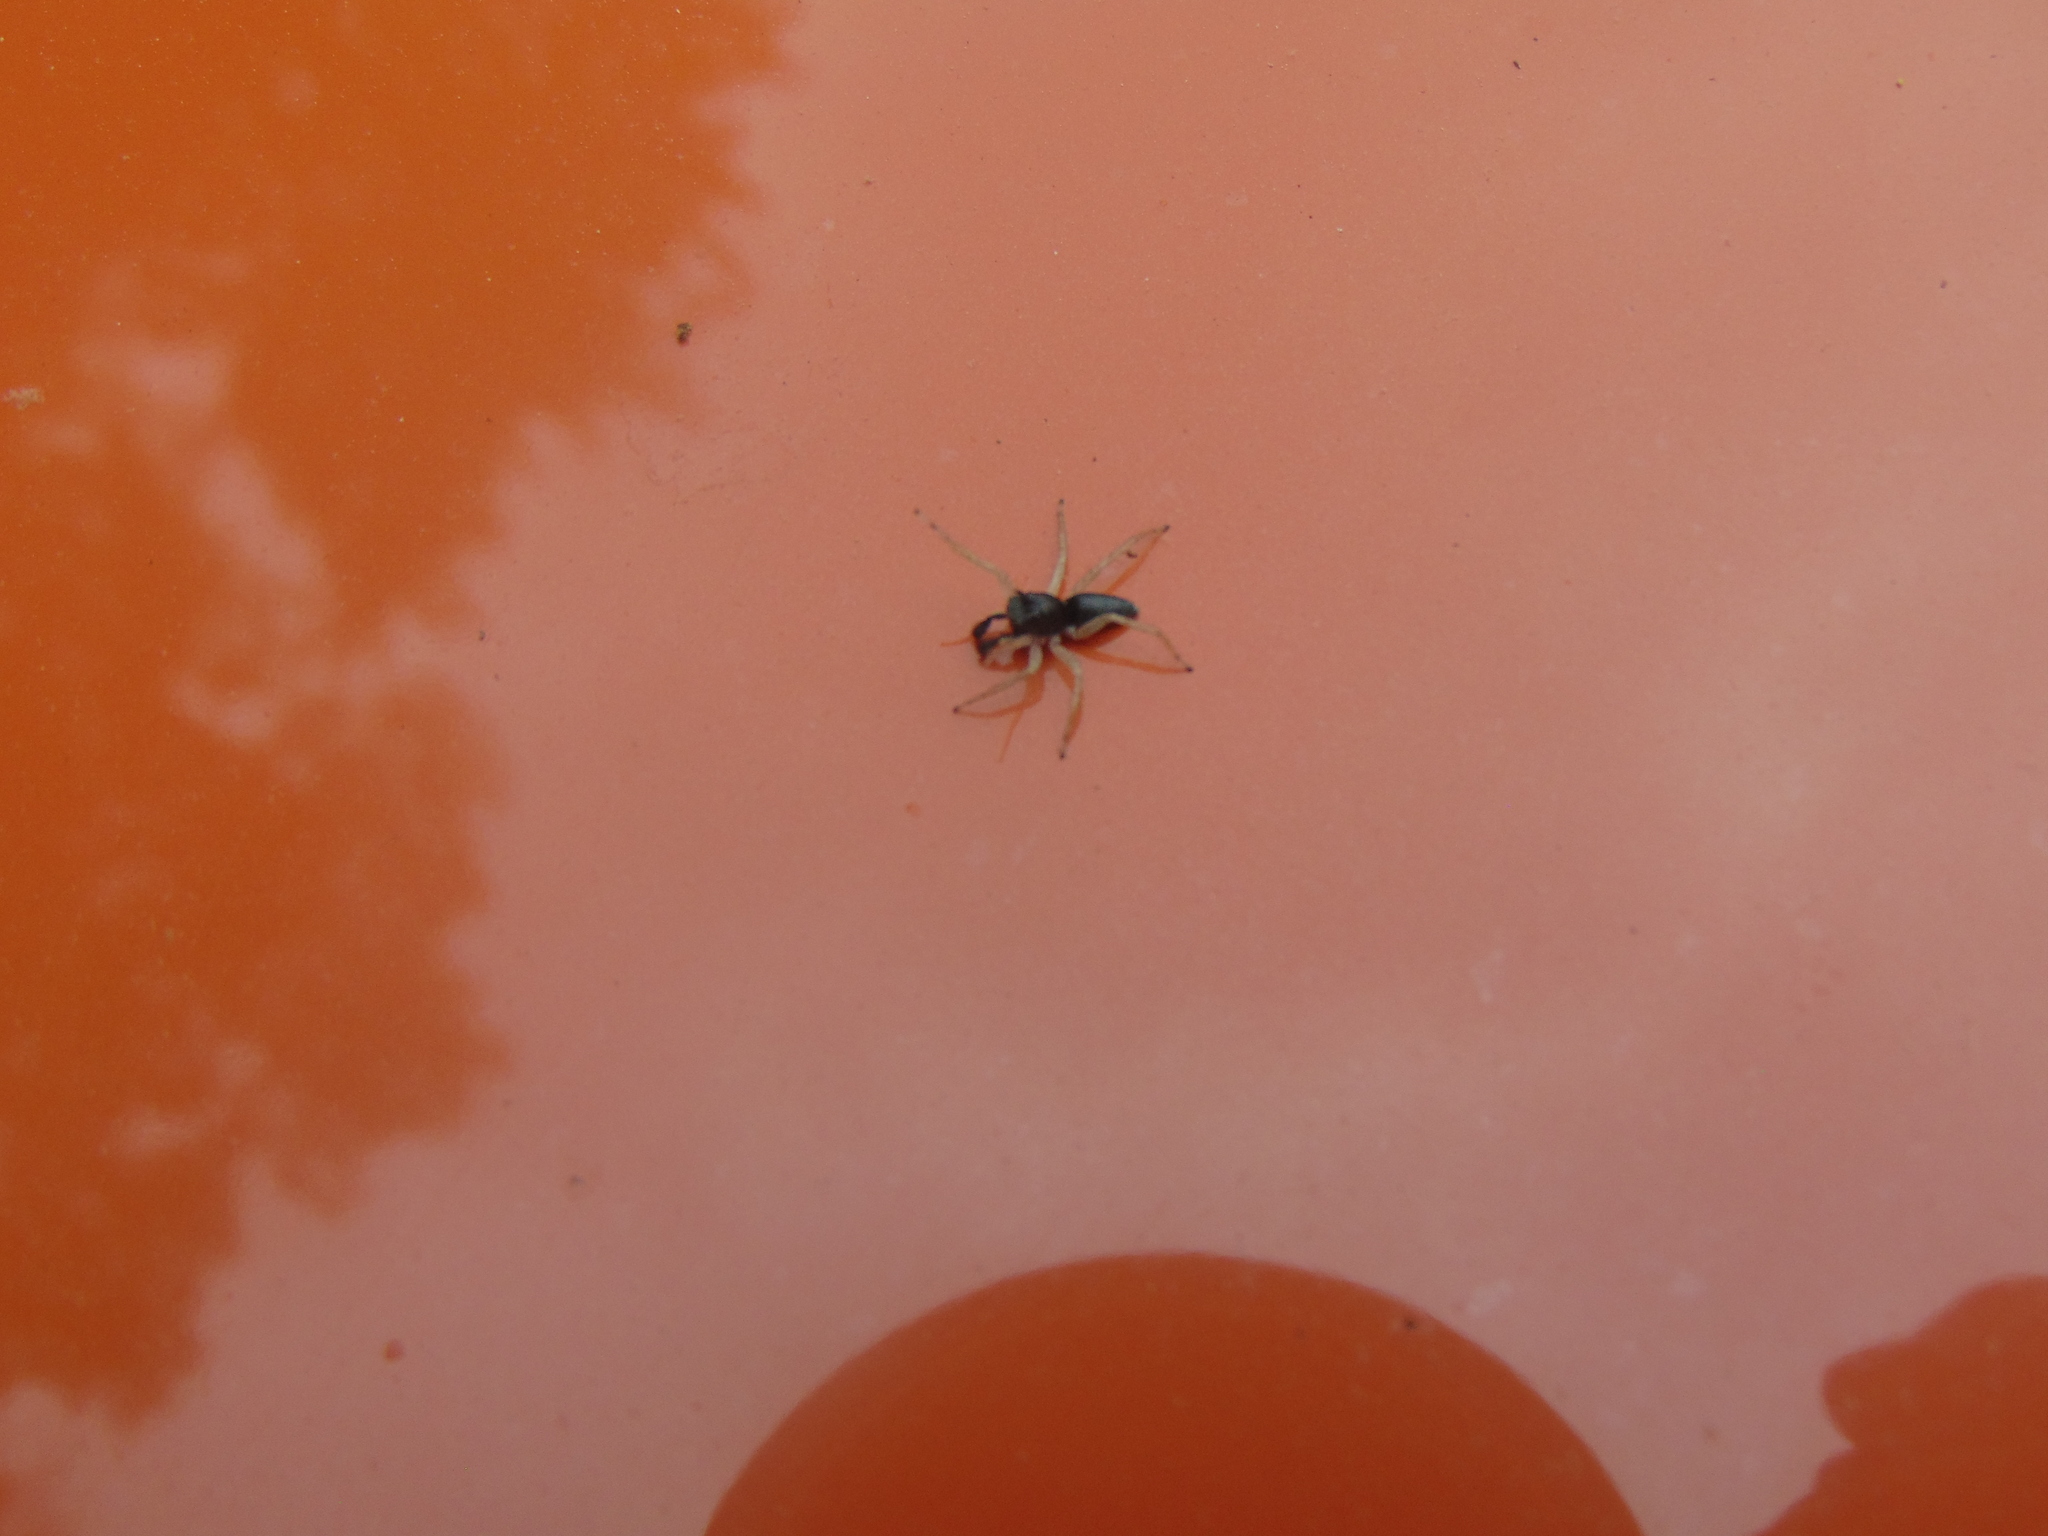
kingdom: Animalia
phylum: Arthropoda
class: Arachnida
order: Araneae
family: Salticidae
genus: Maevia
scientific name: Maevia inclemens
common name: Dimorphic jumper
